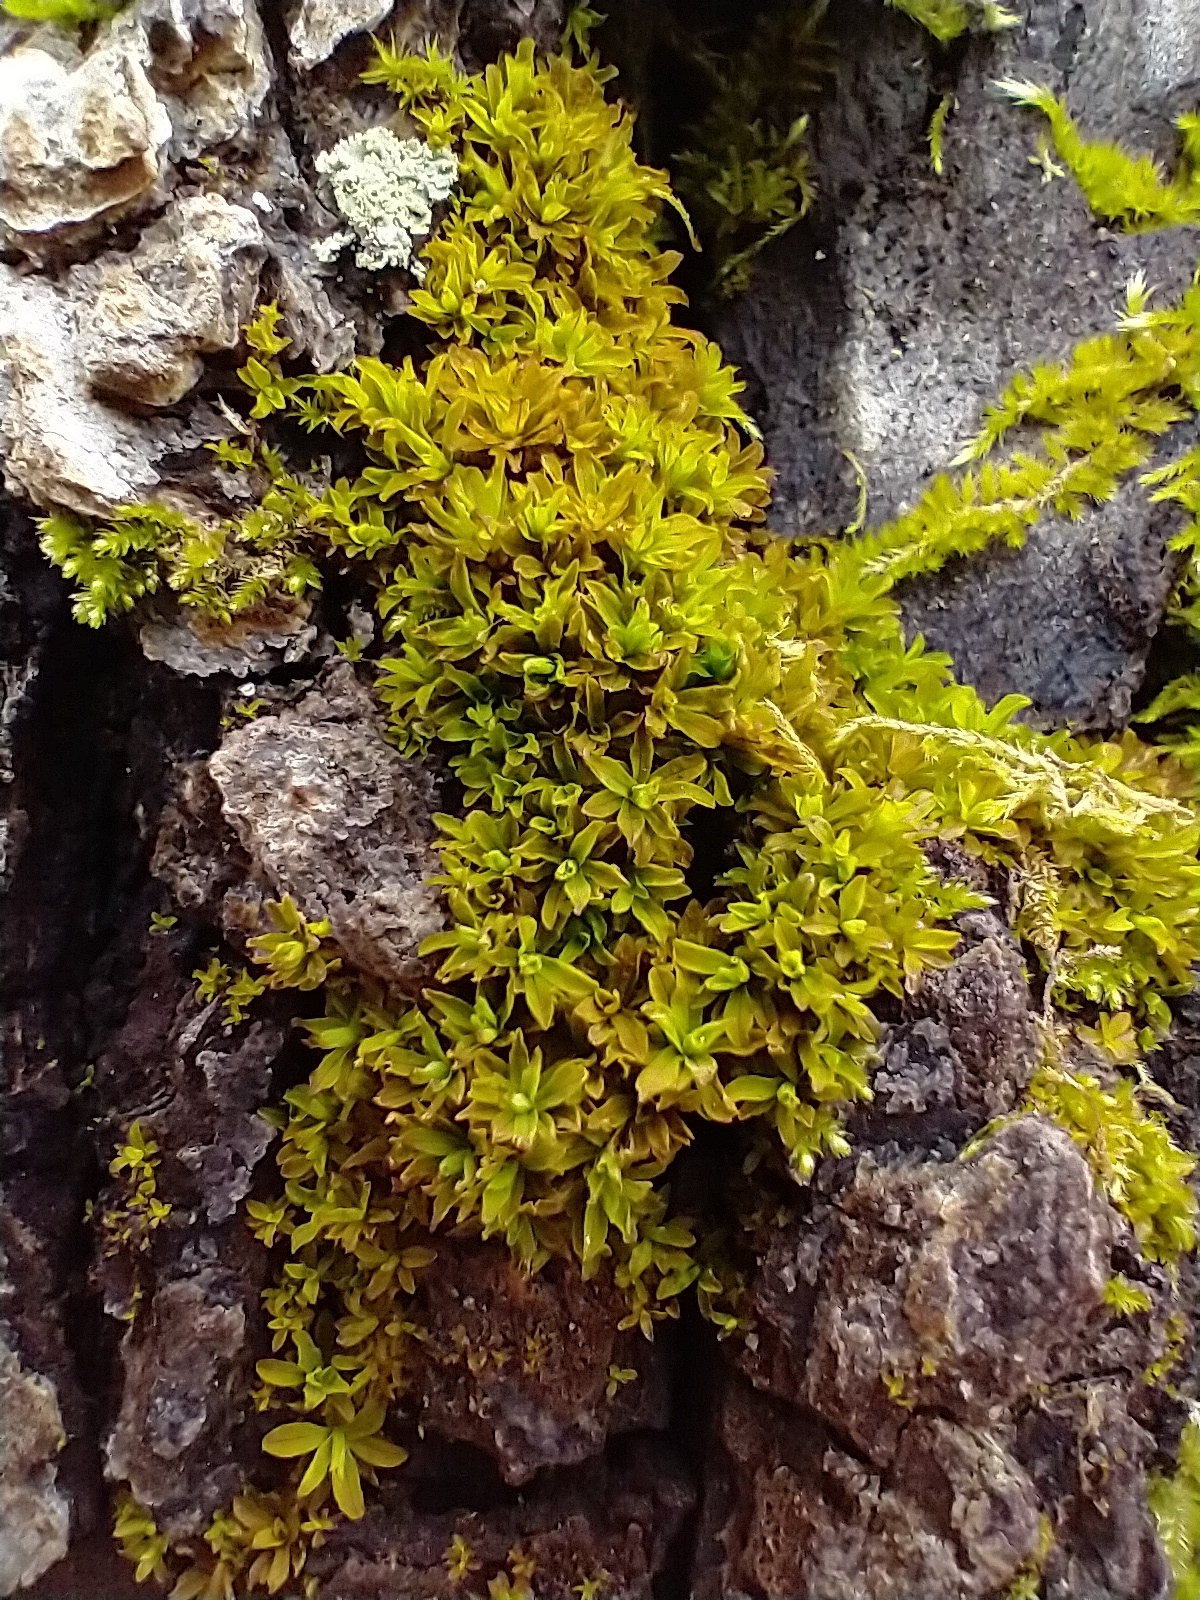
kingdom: Plantae
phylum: Bryophyta
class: Bryopsida
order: Pottiales
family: Pottiaceae
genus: Syntrichia
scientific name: Syntrichia latifolia
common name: Water screw-moss
